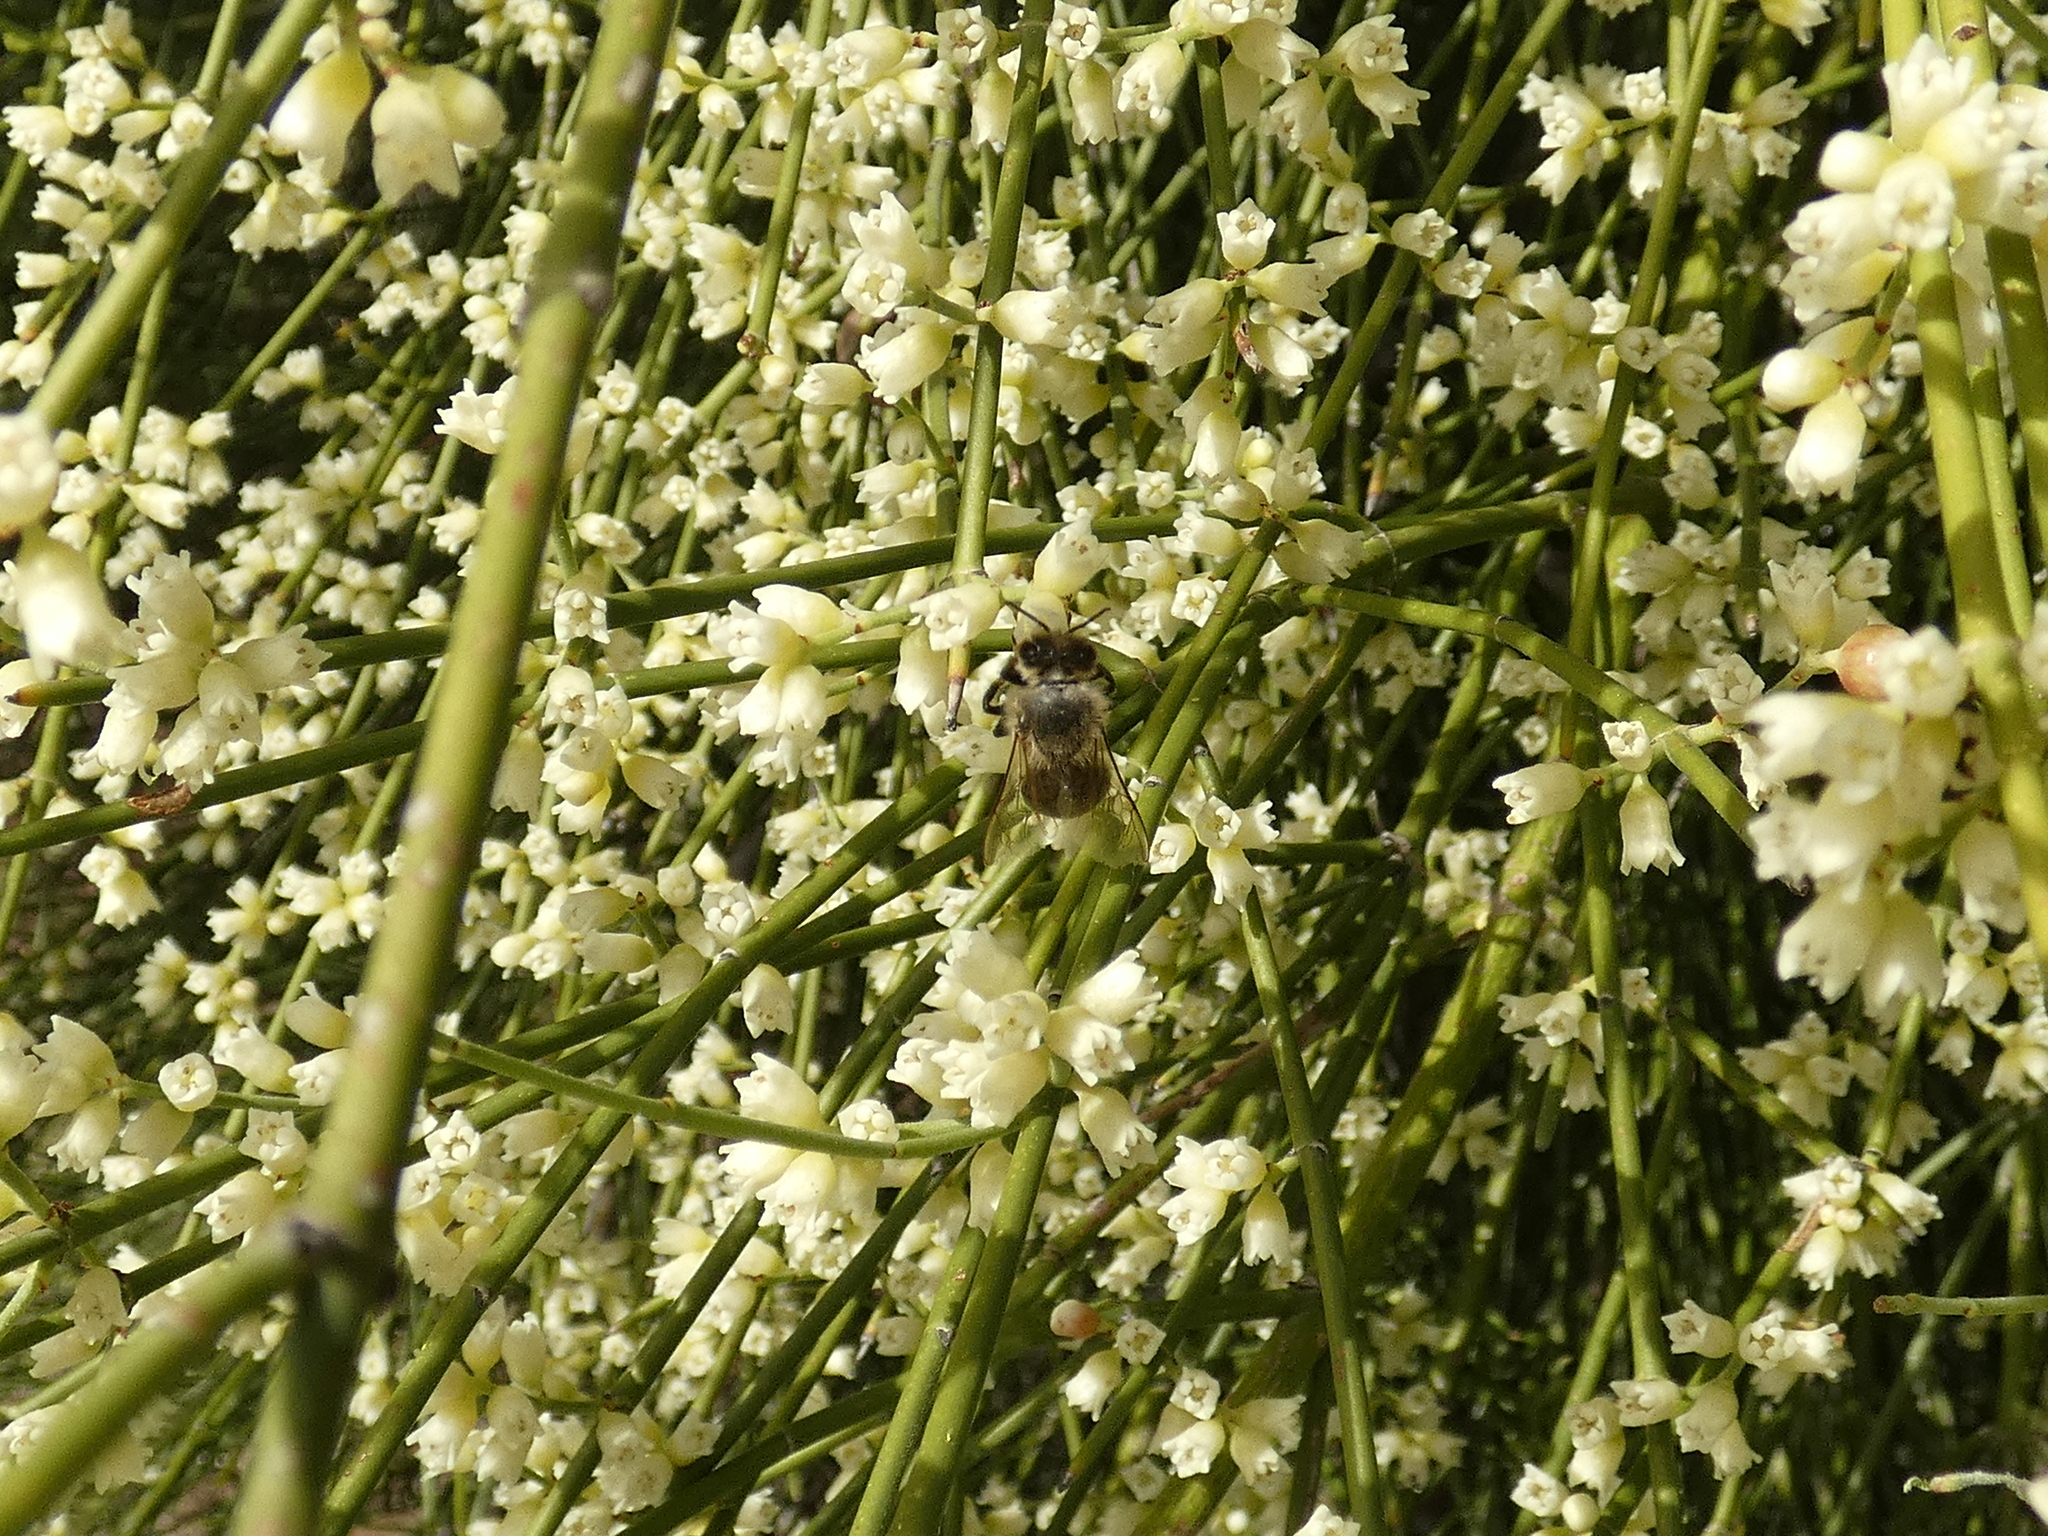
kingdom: Animalia
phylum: Arthropoda
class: Insecta
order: Hymenoptera
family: Apidae
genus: Apis
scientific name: Apis mellifera
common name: Honey bee
